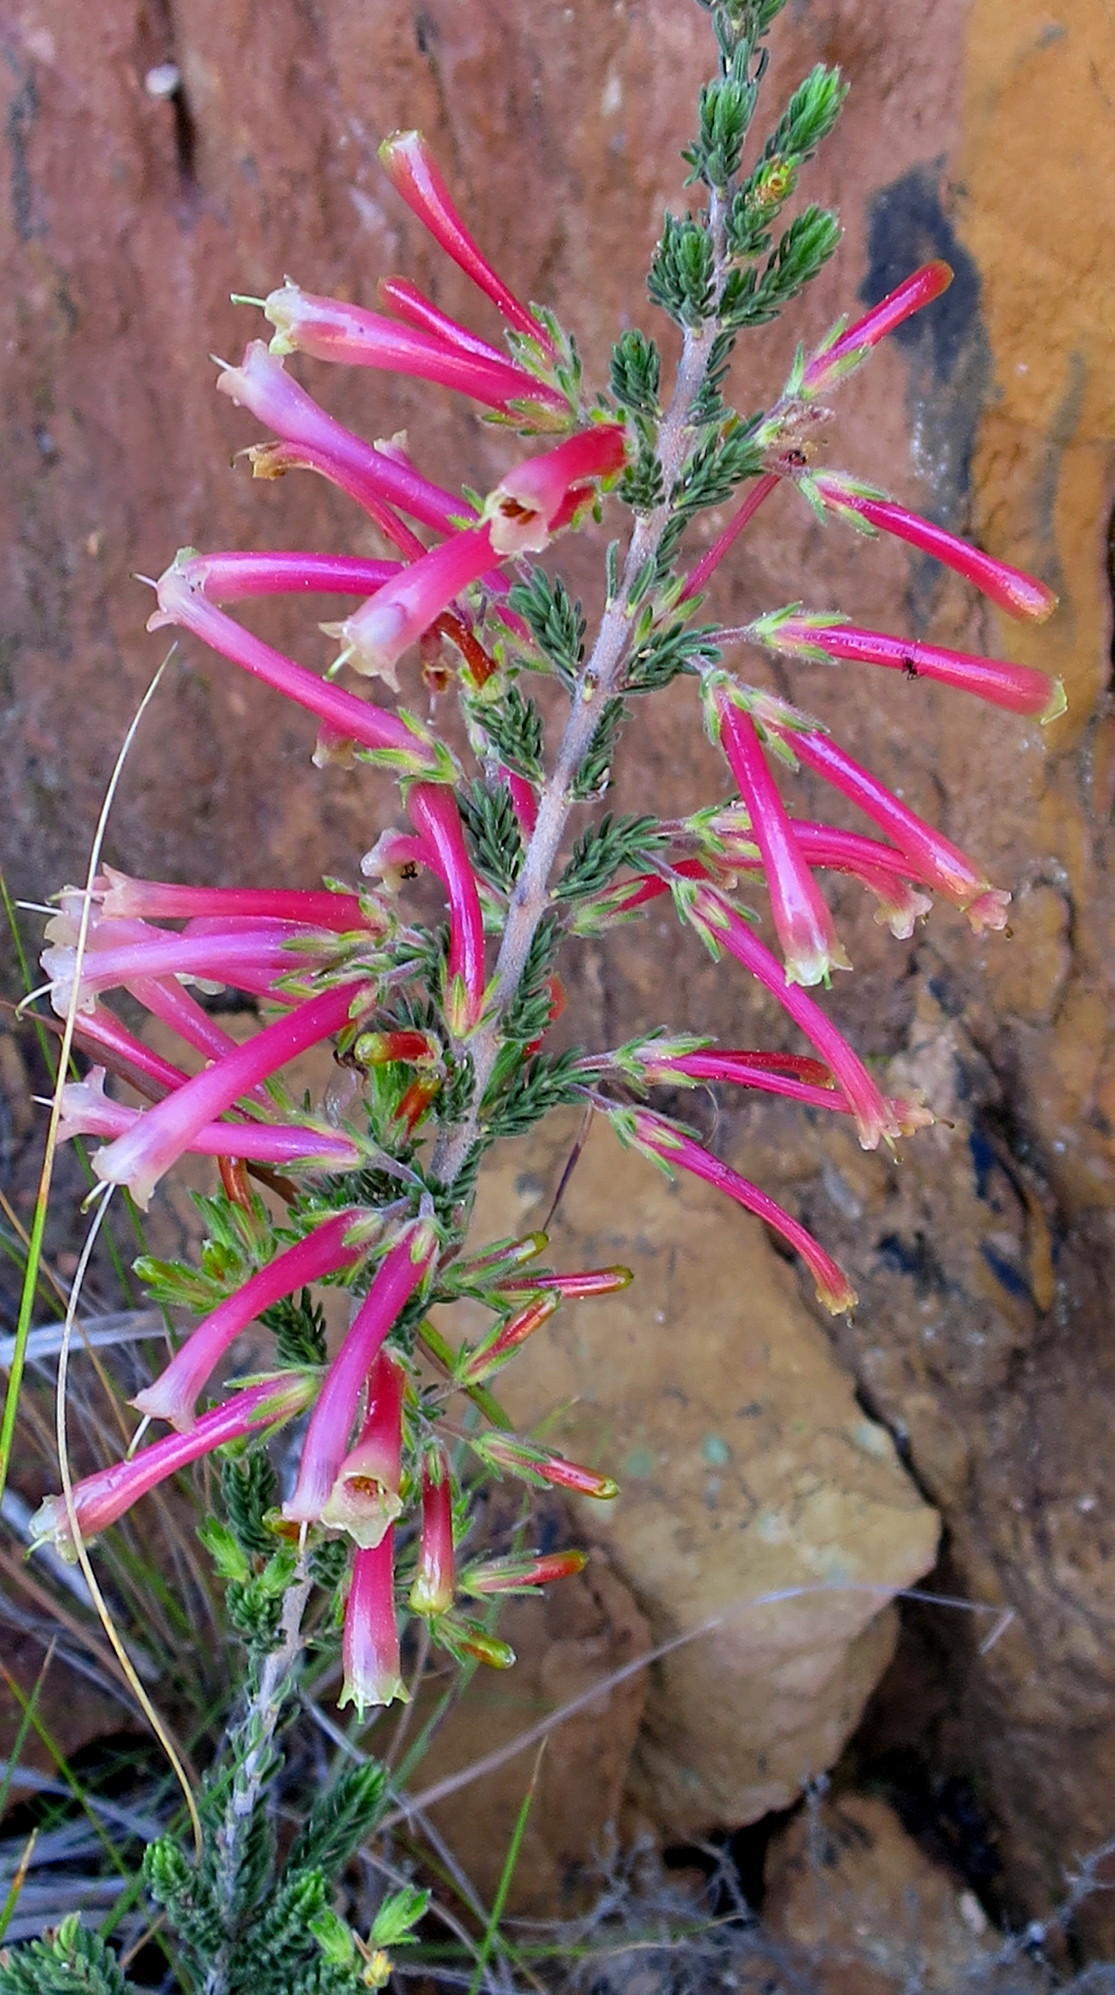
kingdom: Plantae
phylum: Tracheophyta
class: Magnoliopsida
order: Ericales
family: Ericaceae
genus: Erica
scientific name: Erica discolor
